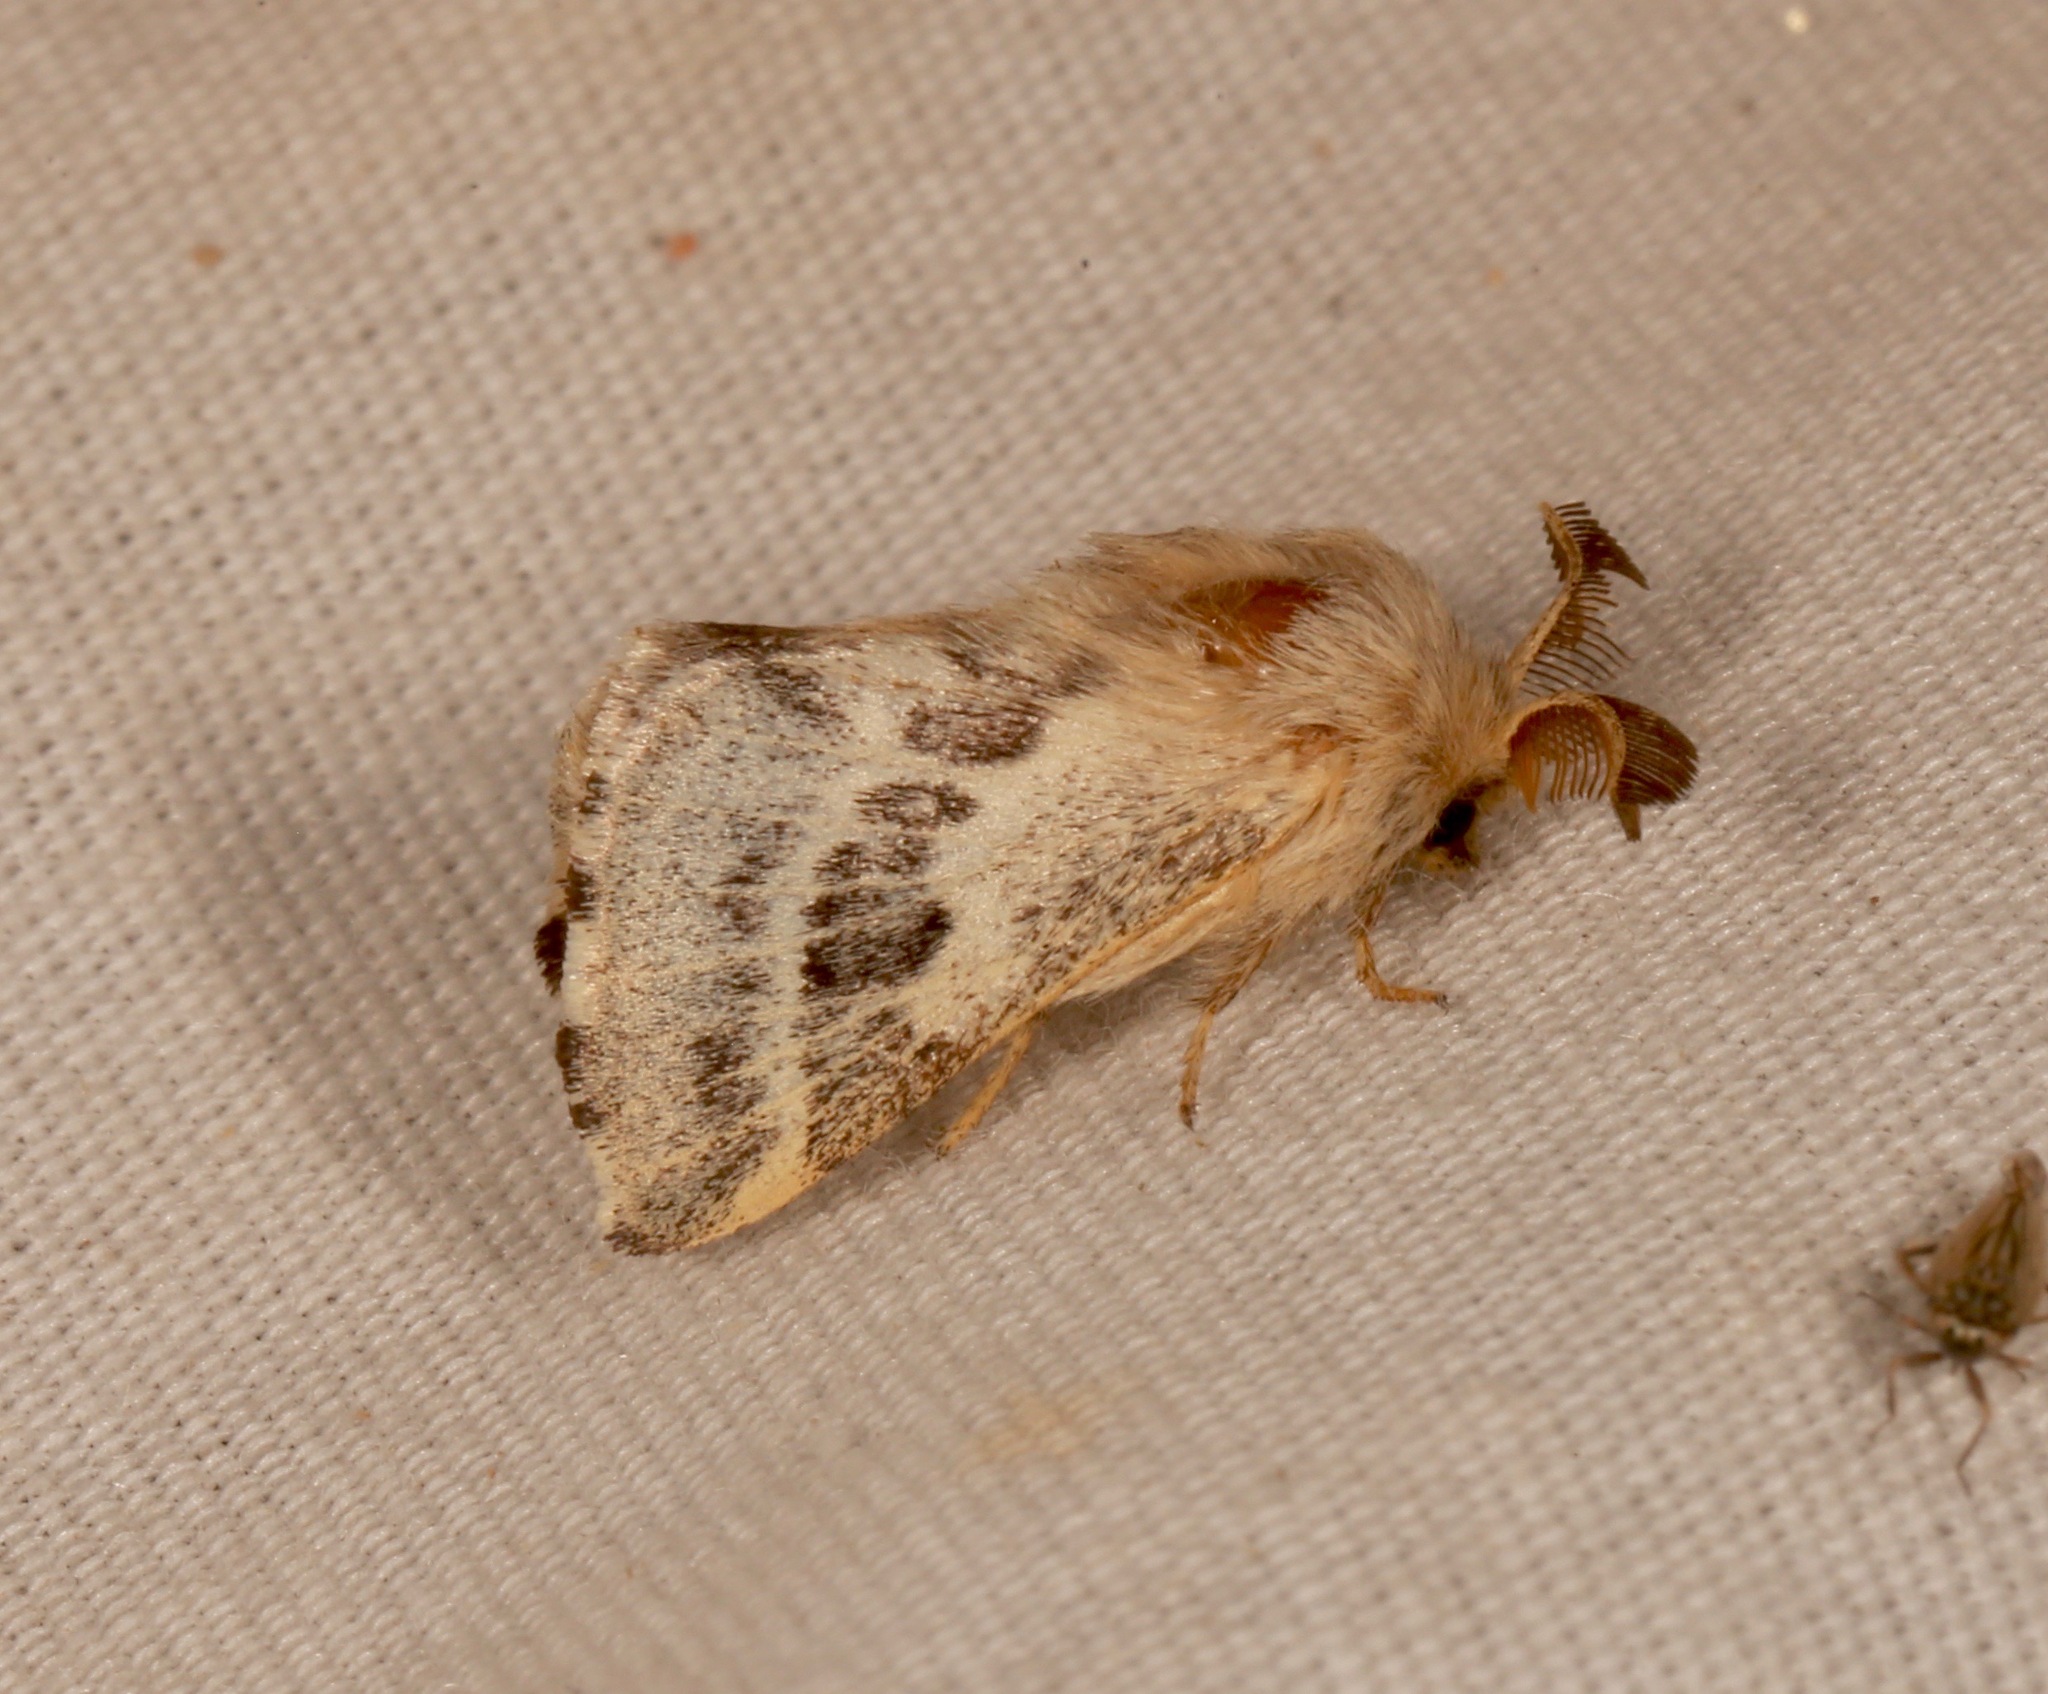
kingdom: Animalia
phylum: Arthropoda
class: Insecta
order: Lepidoptera
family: Lasiocampidae
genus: Malacosoma
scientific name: Malacosoma californica
